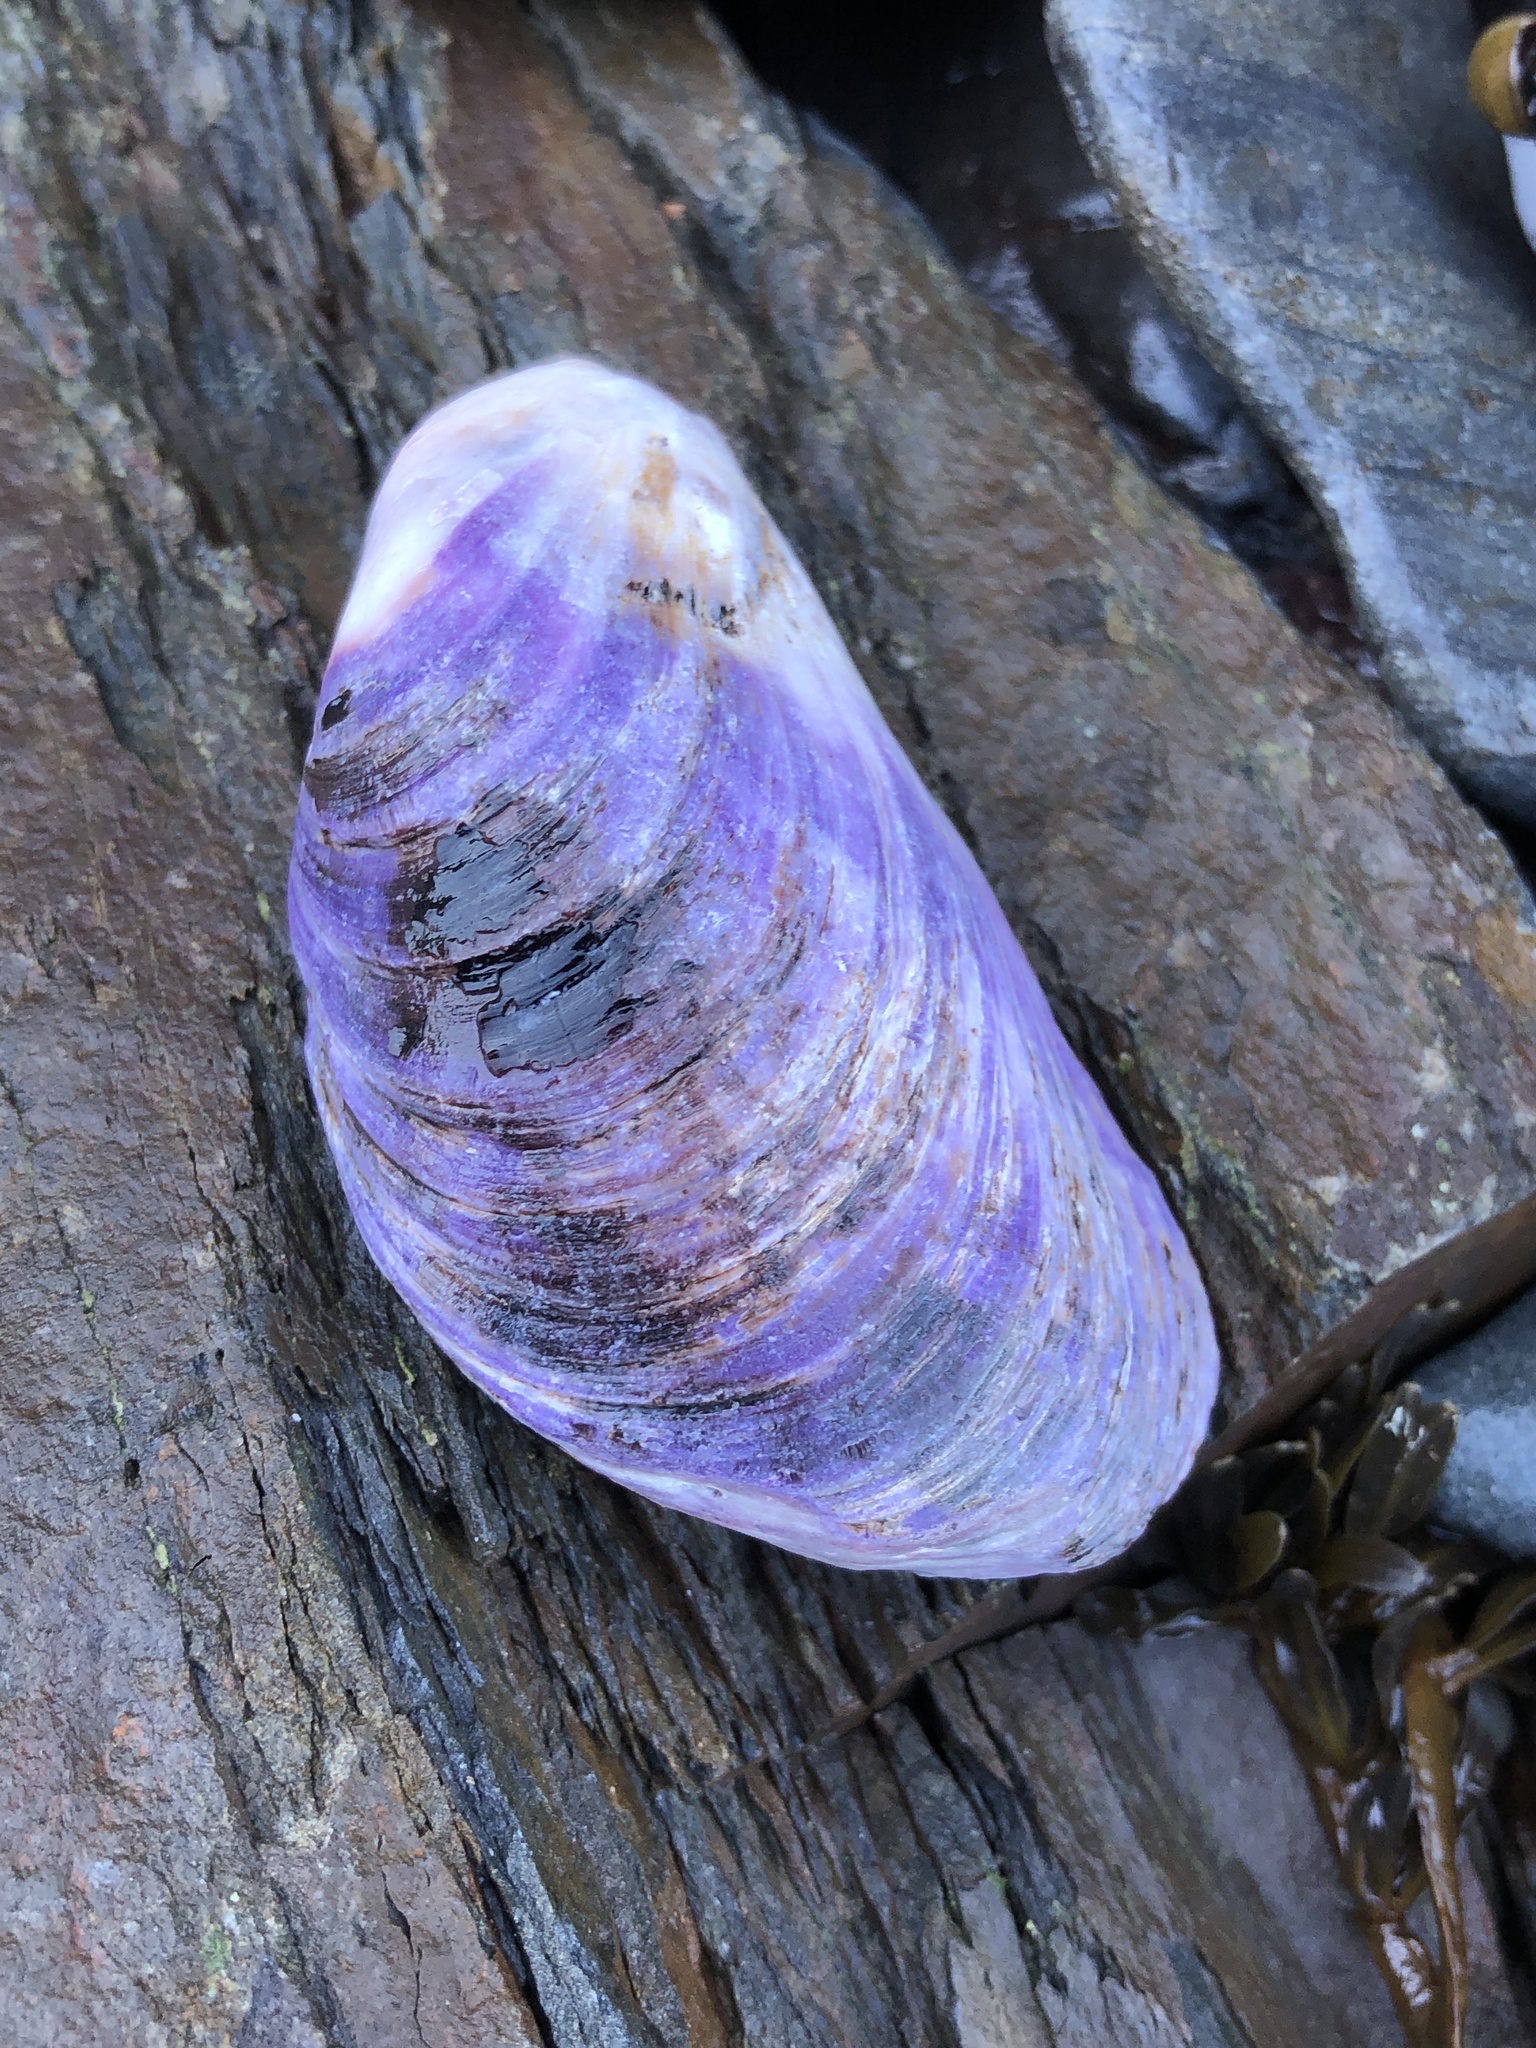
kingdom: Animalia
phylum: Mollusca
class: Bivalvia
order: Mytilida
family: Mytilidae
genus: Modiolus
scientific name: Modiolus modiolus
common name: Horse-mussel
